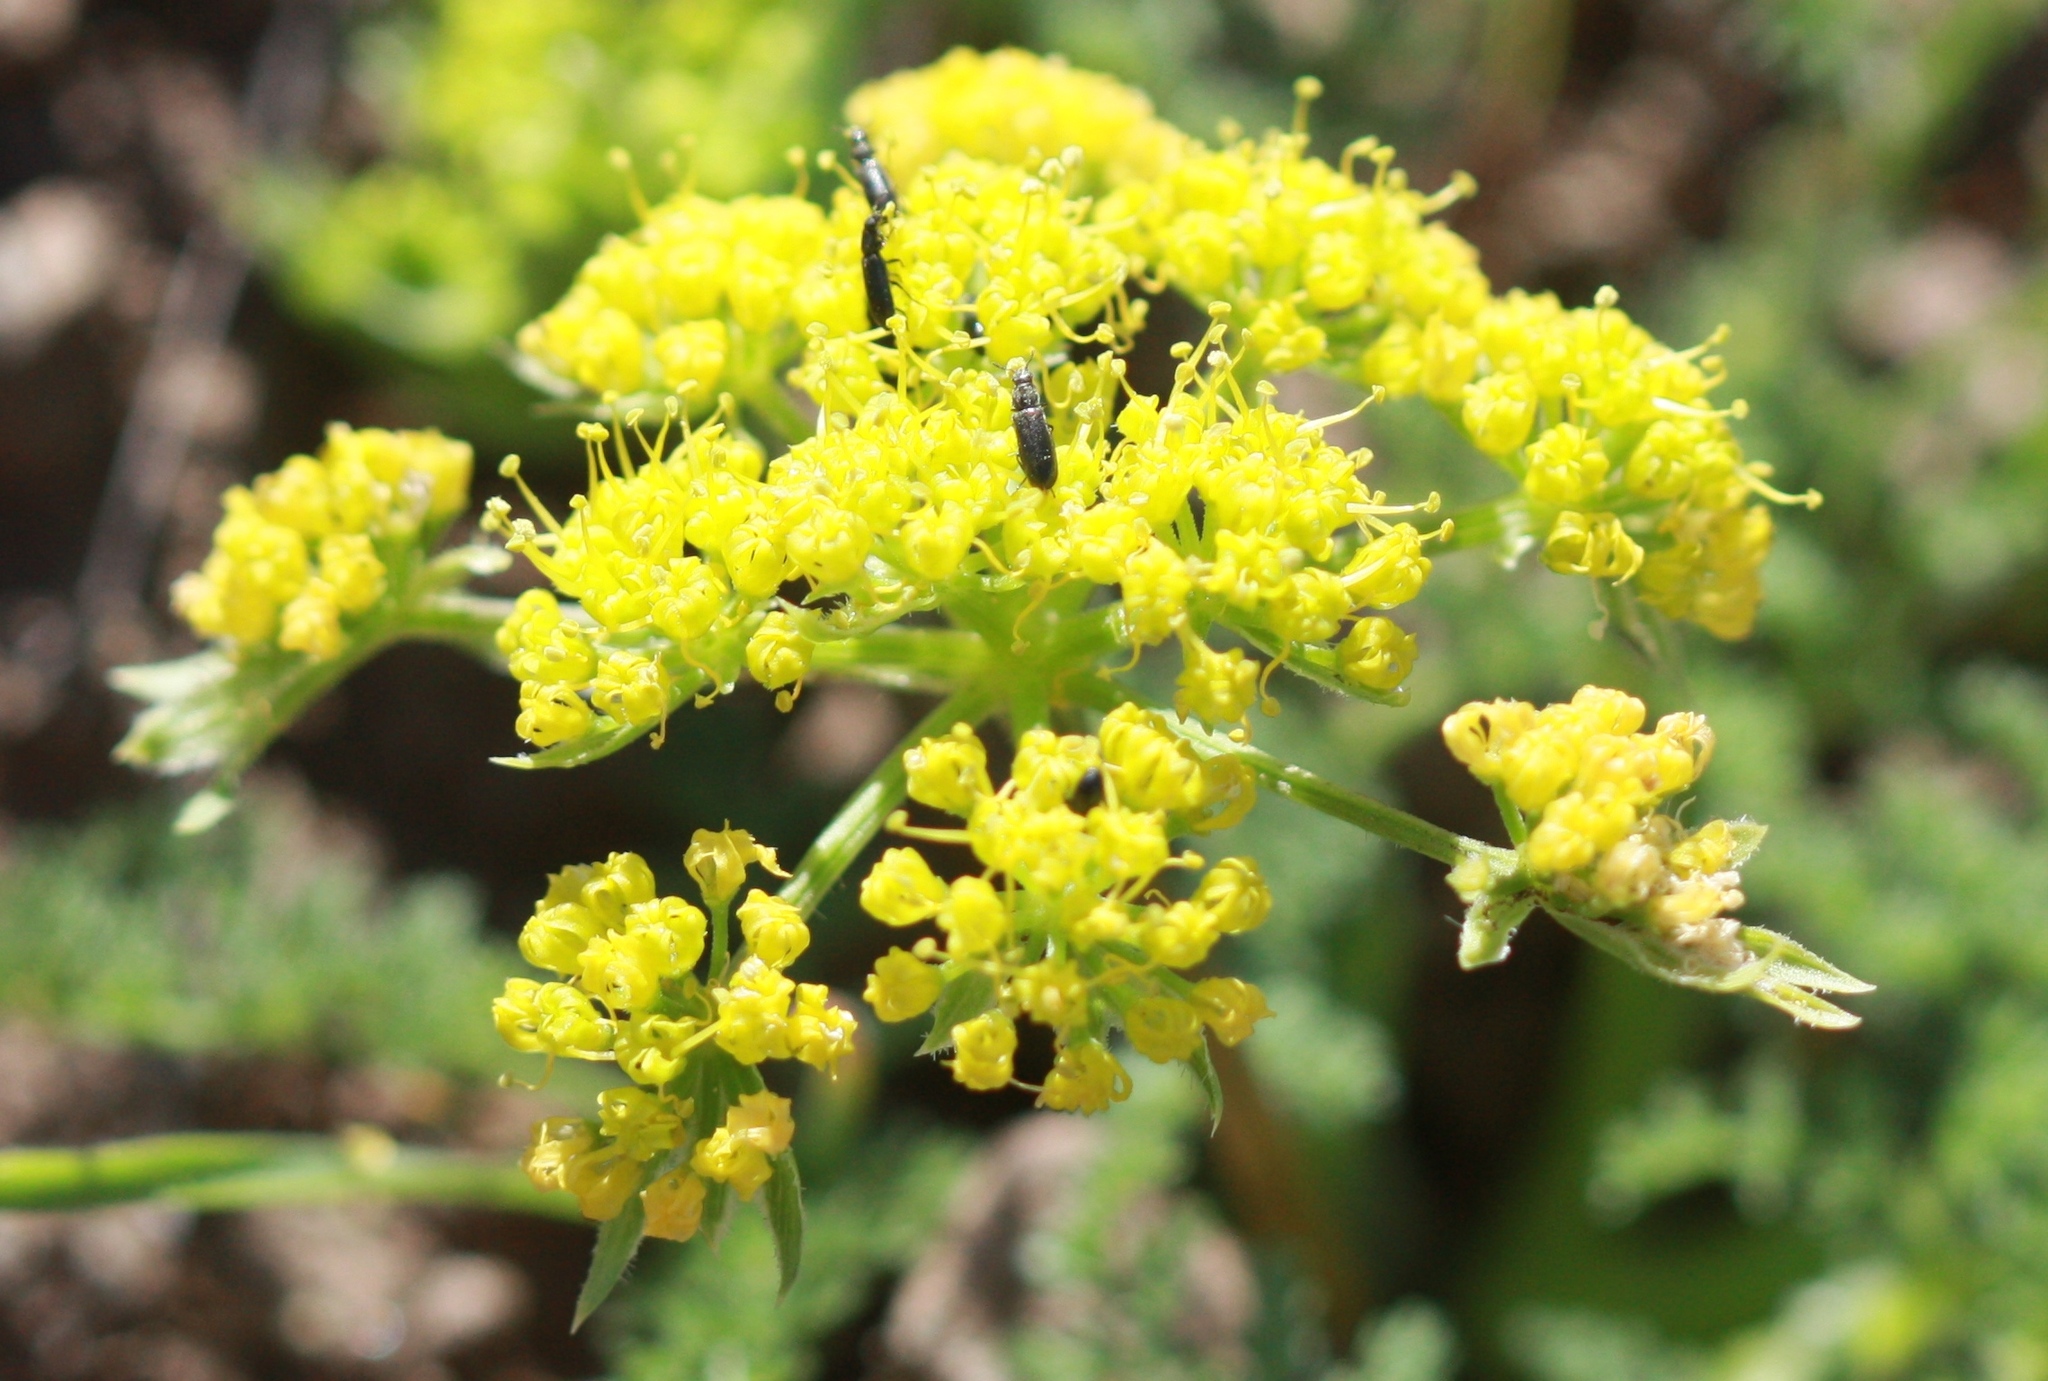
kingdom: Plantae
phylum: Tracheophyta
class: Magnoliopsida
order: Apiales
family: Apiaceae
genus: Lomatium
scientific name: Lomatium dasycarpum
